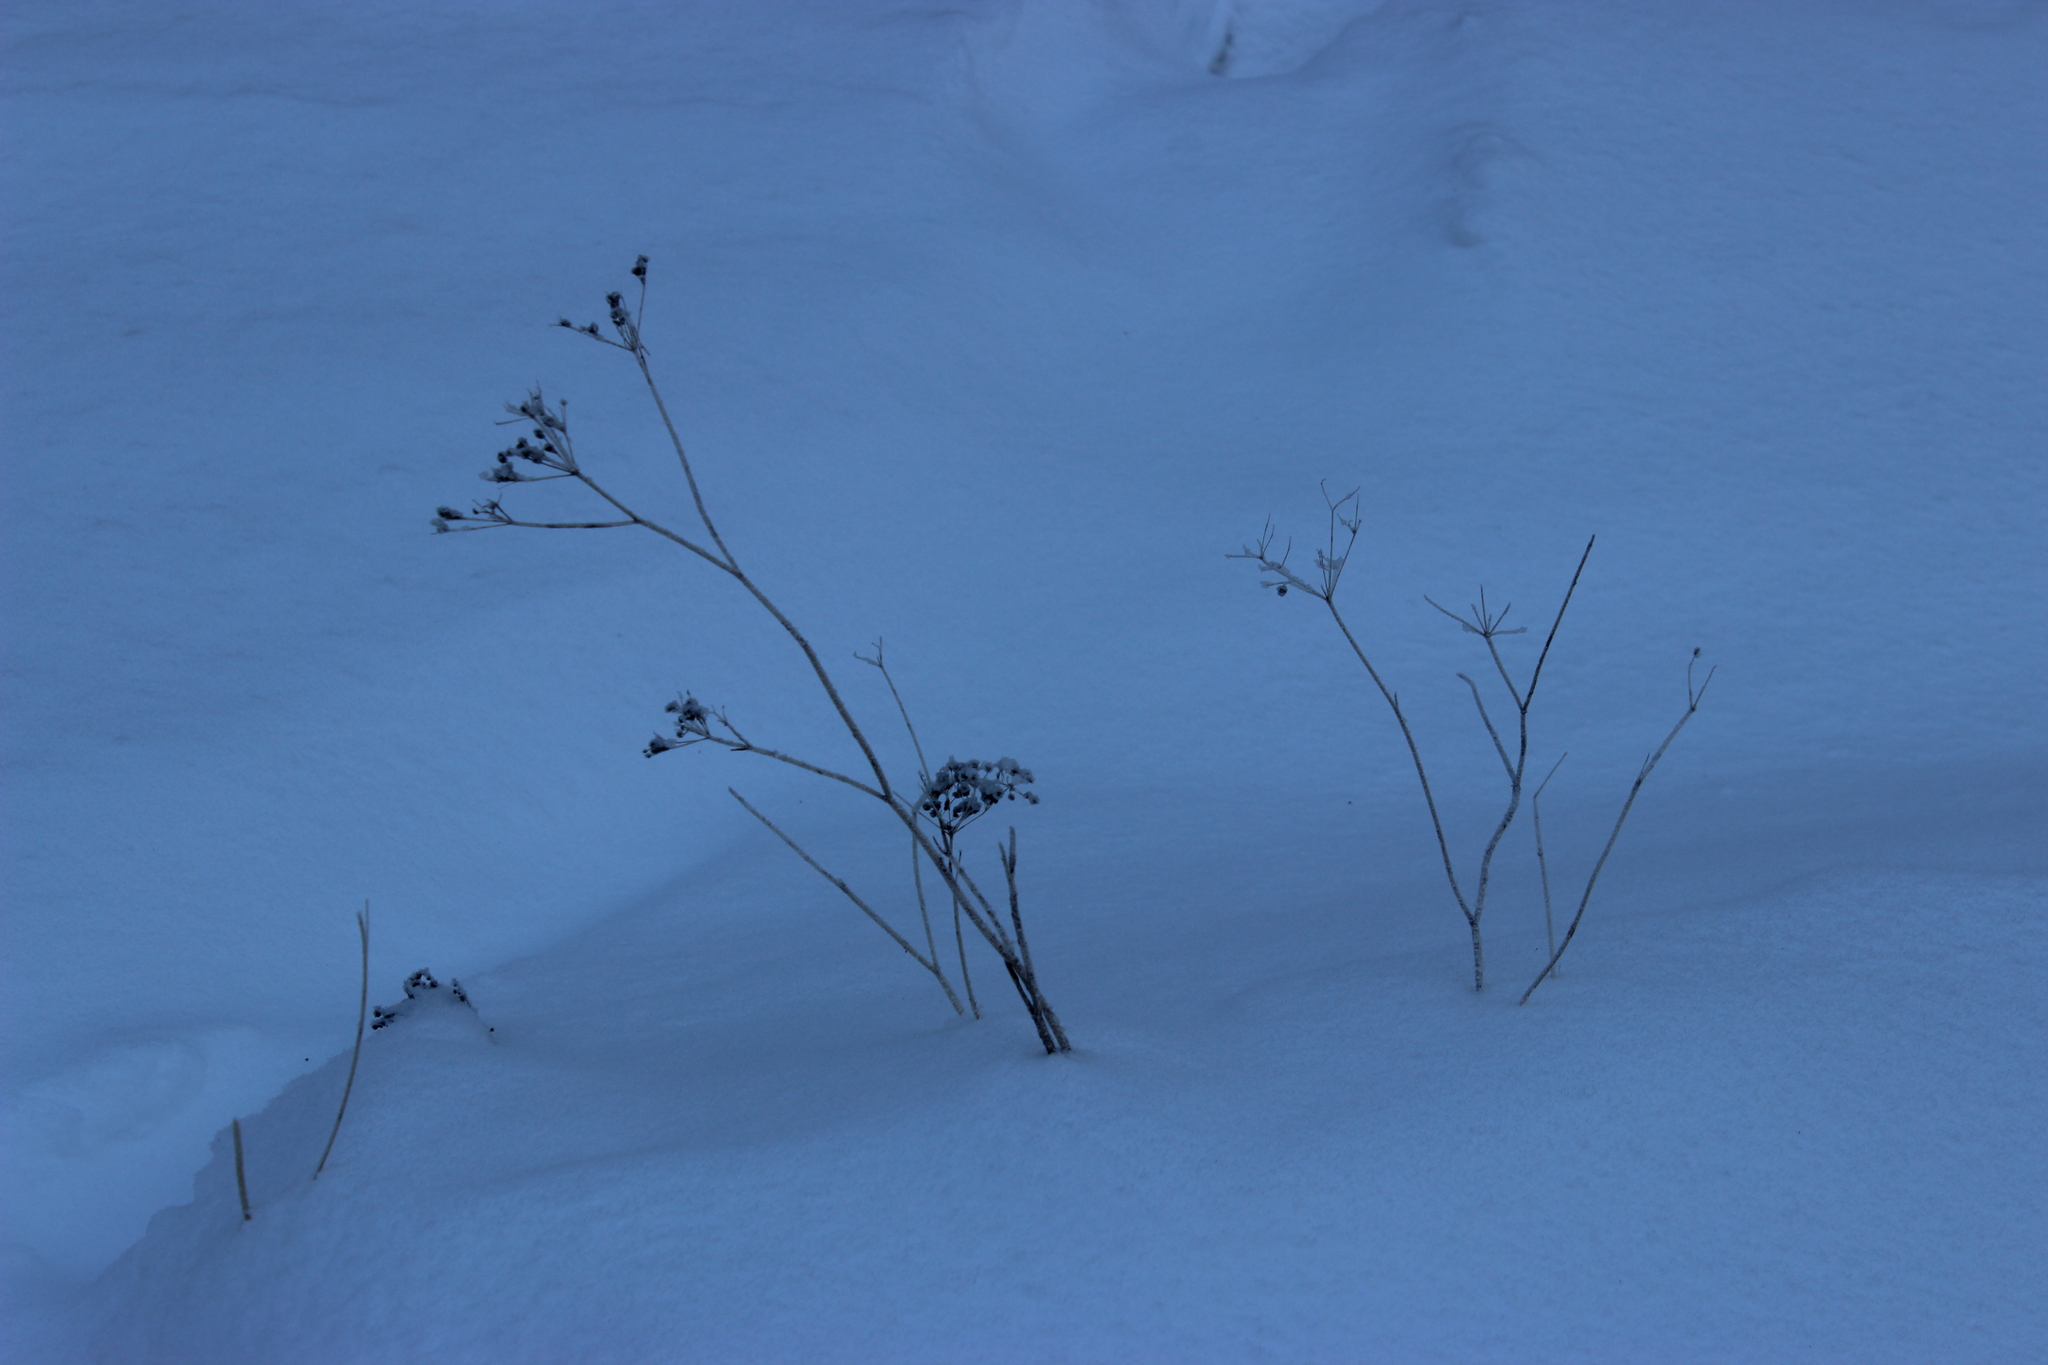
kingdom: Plantae
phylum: Tracheophyta
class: Magnoliopsida
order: Apiales
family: Apiaceae
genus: Carum
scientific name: Carum carvi
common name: Caraway
